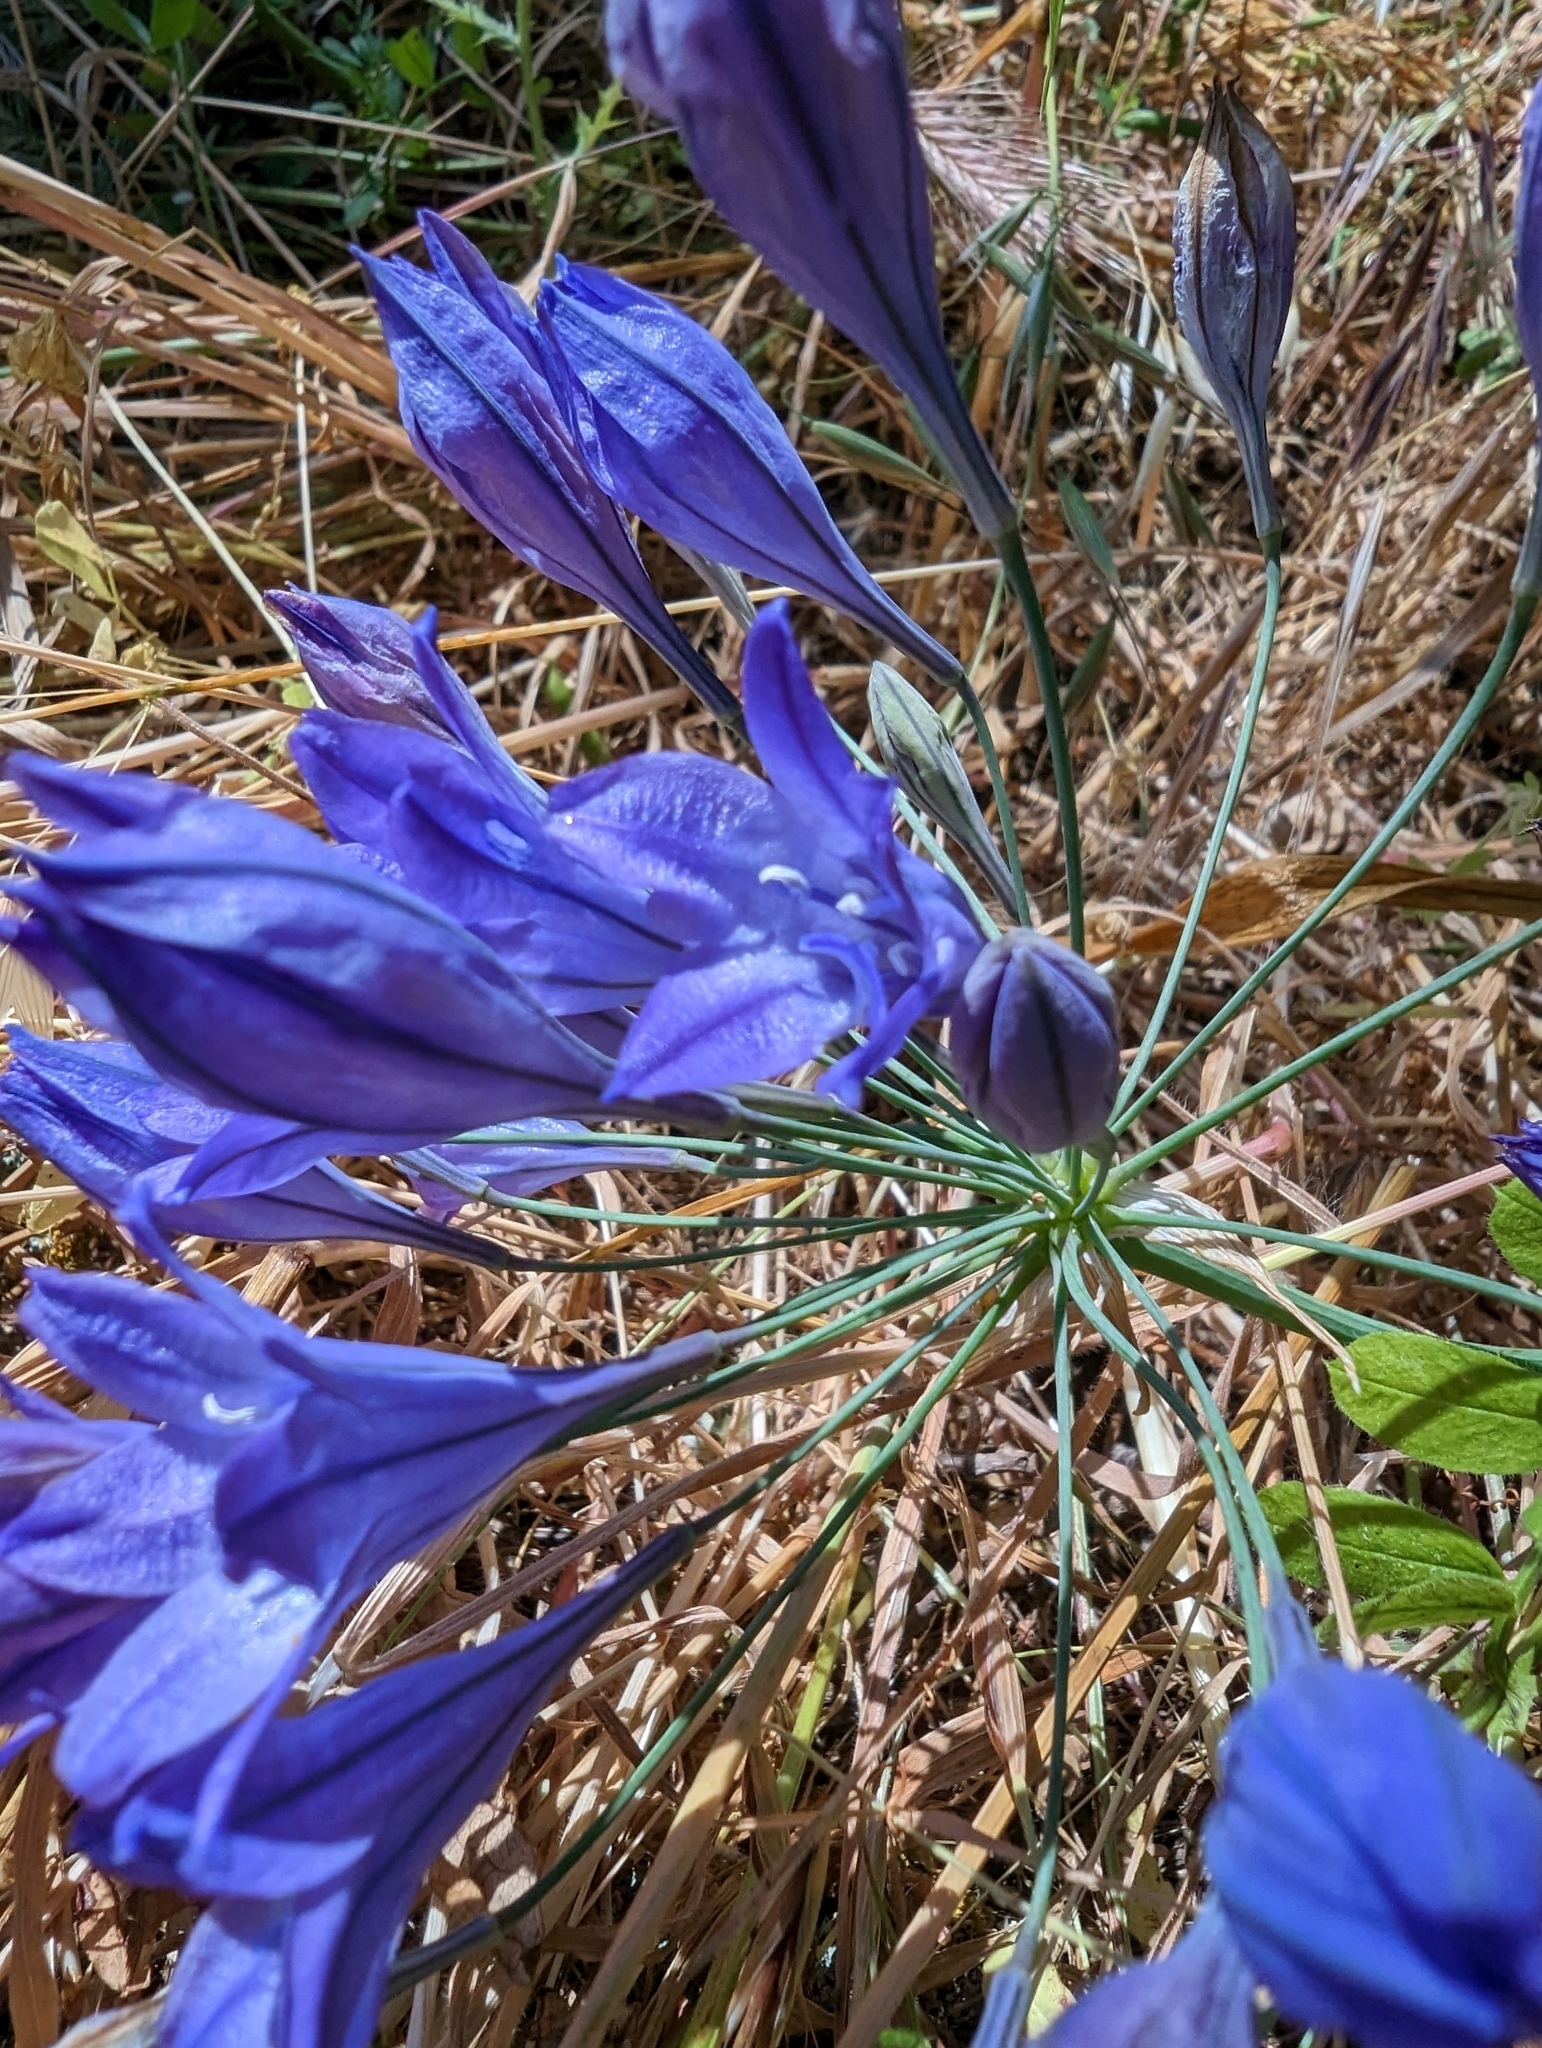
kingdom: Plantae
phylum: Tracheophyta
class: Liliopsida
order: Asparagales
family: Asparagaceae
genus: Triteleia
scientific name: Triteleia laxa
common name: Triplet-lily
